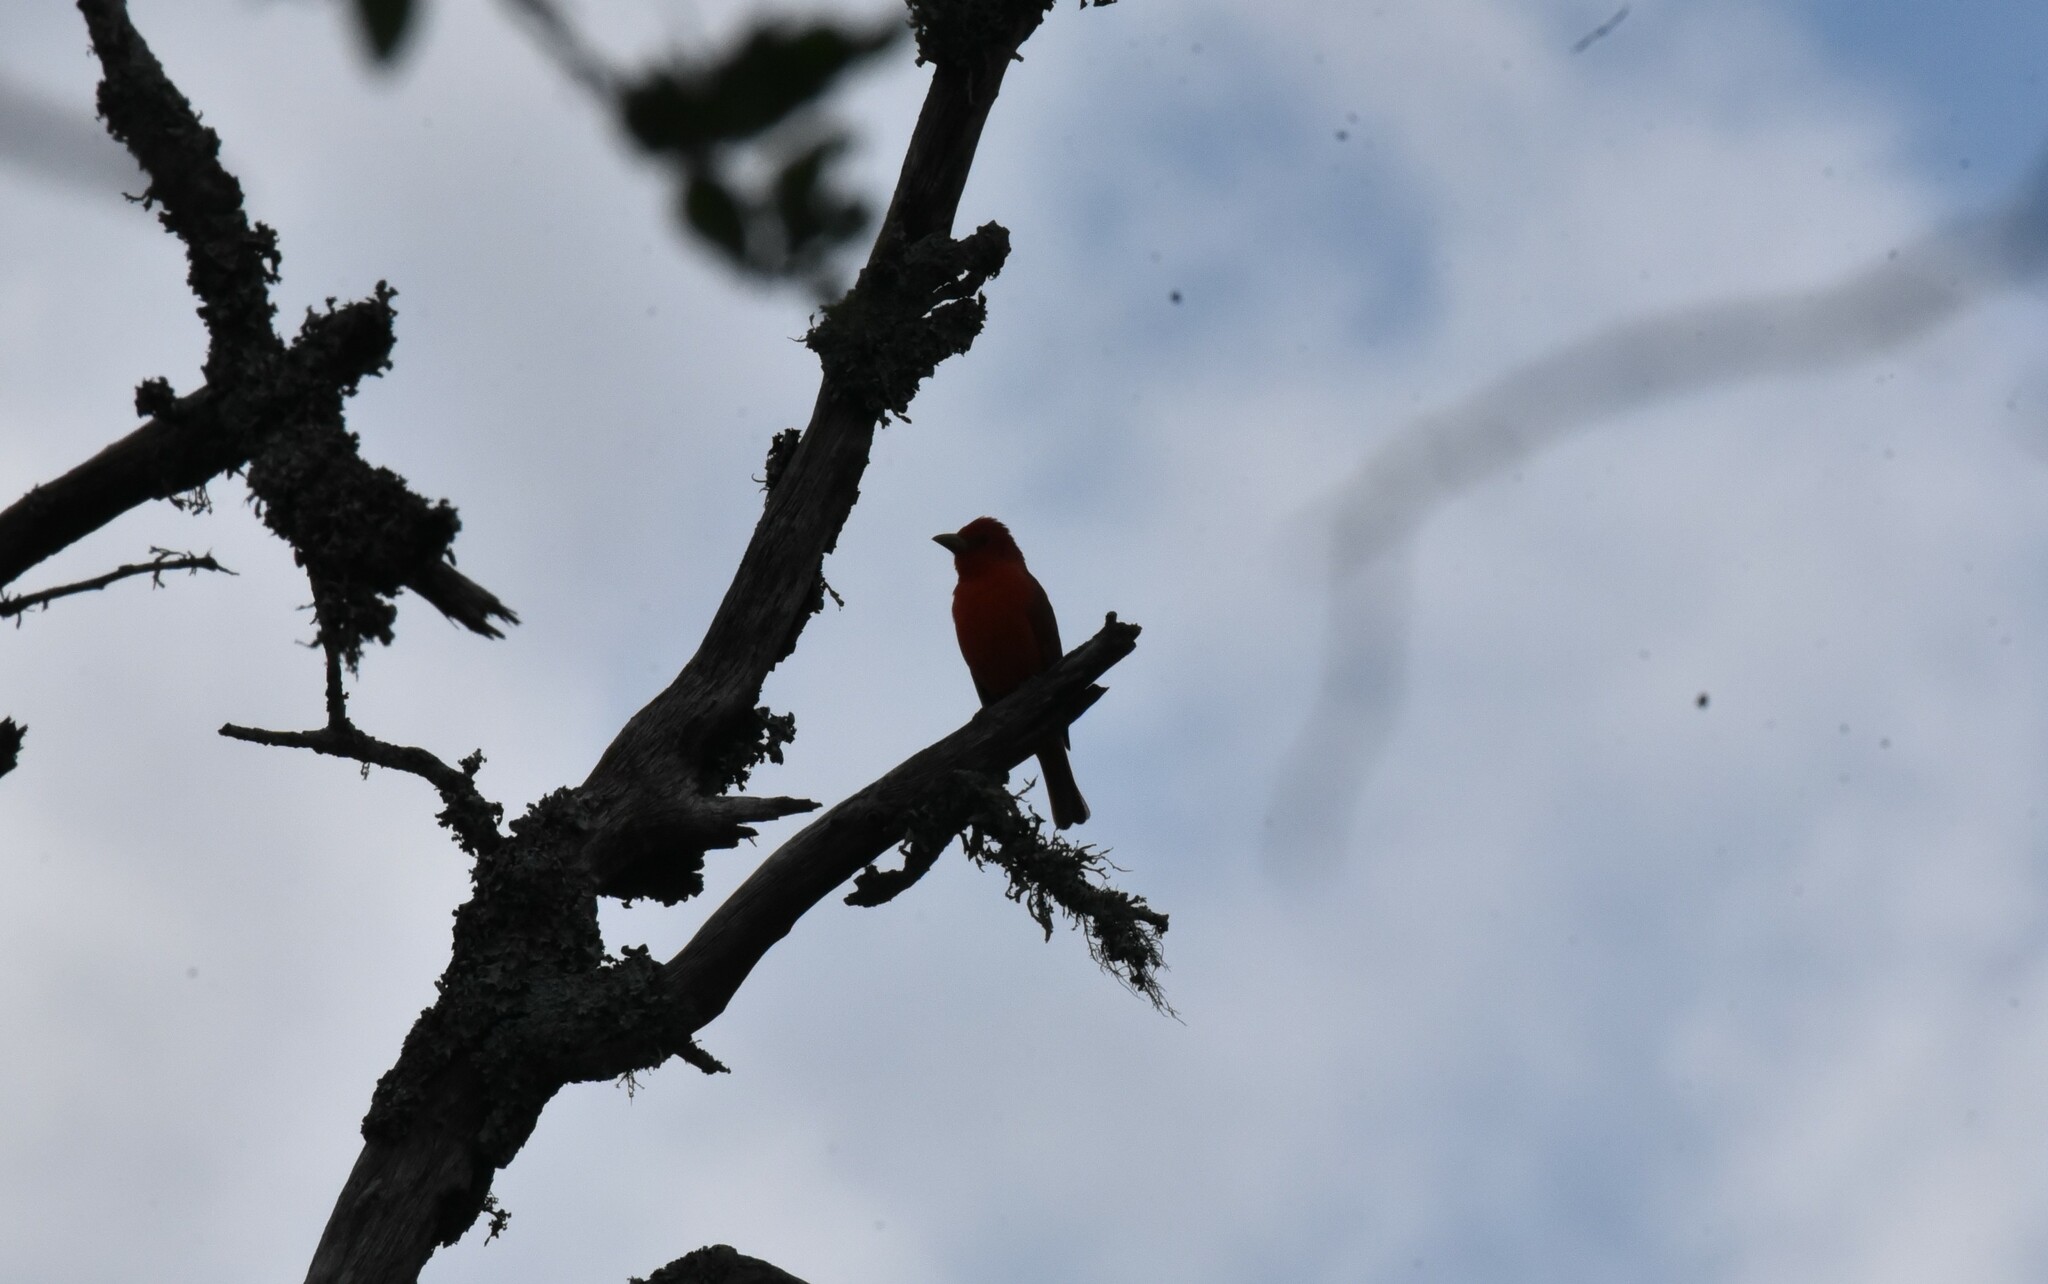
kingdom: Animalia
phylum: Chordata
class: Aves
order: Passeriformes
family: Cardinalidae
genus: Piranga
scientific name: Piranga rubra
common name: Summer tanager
